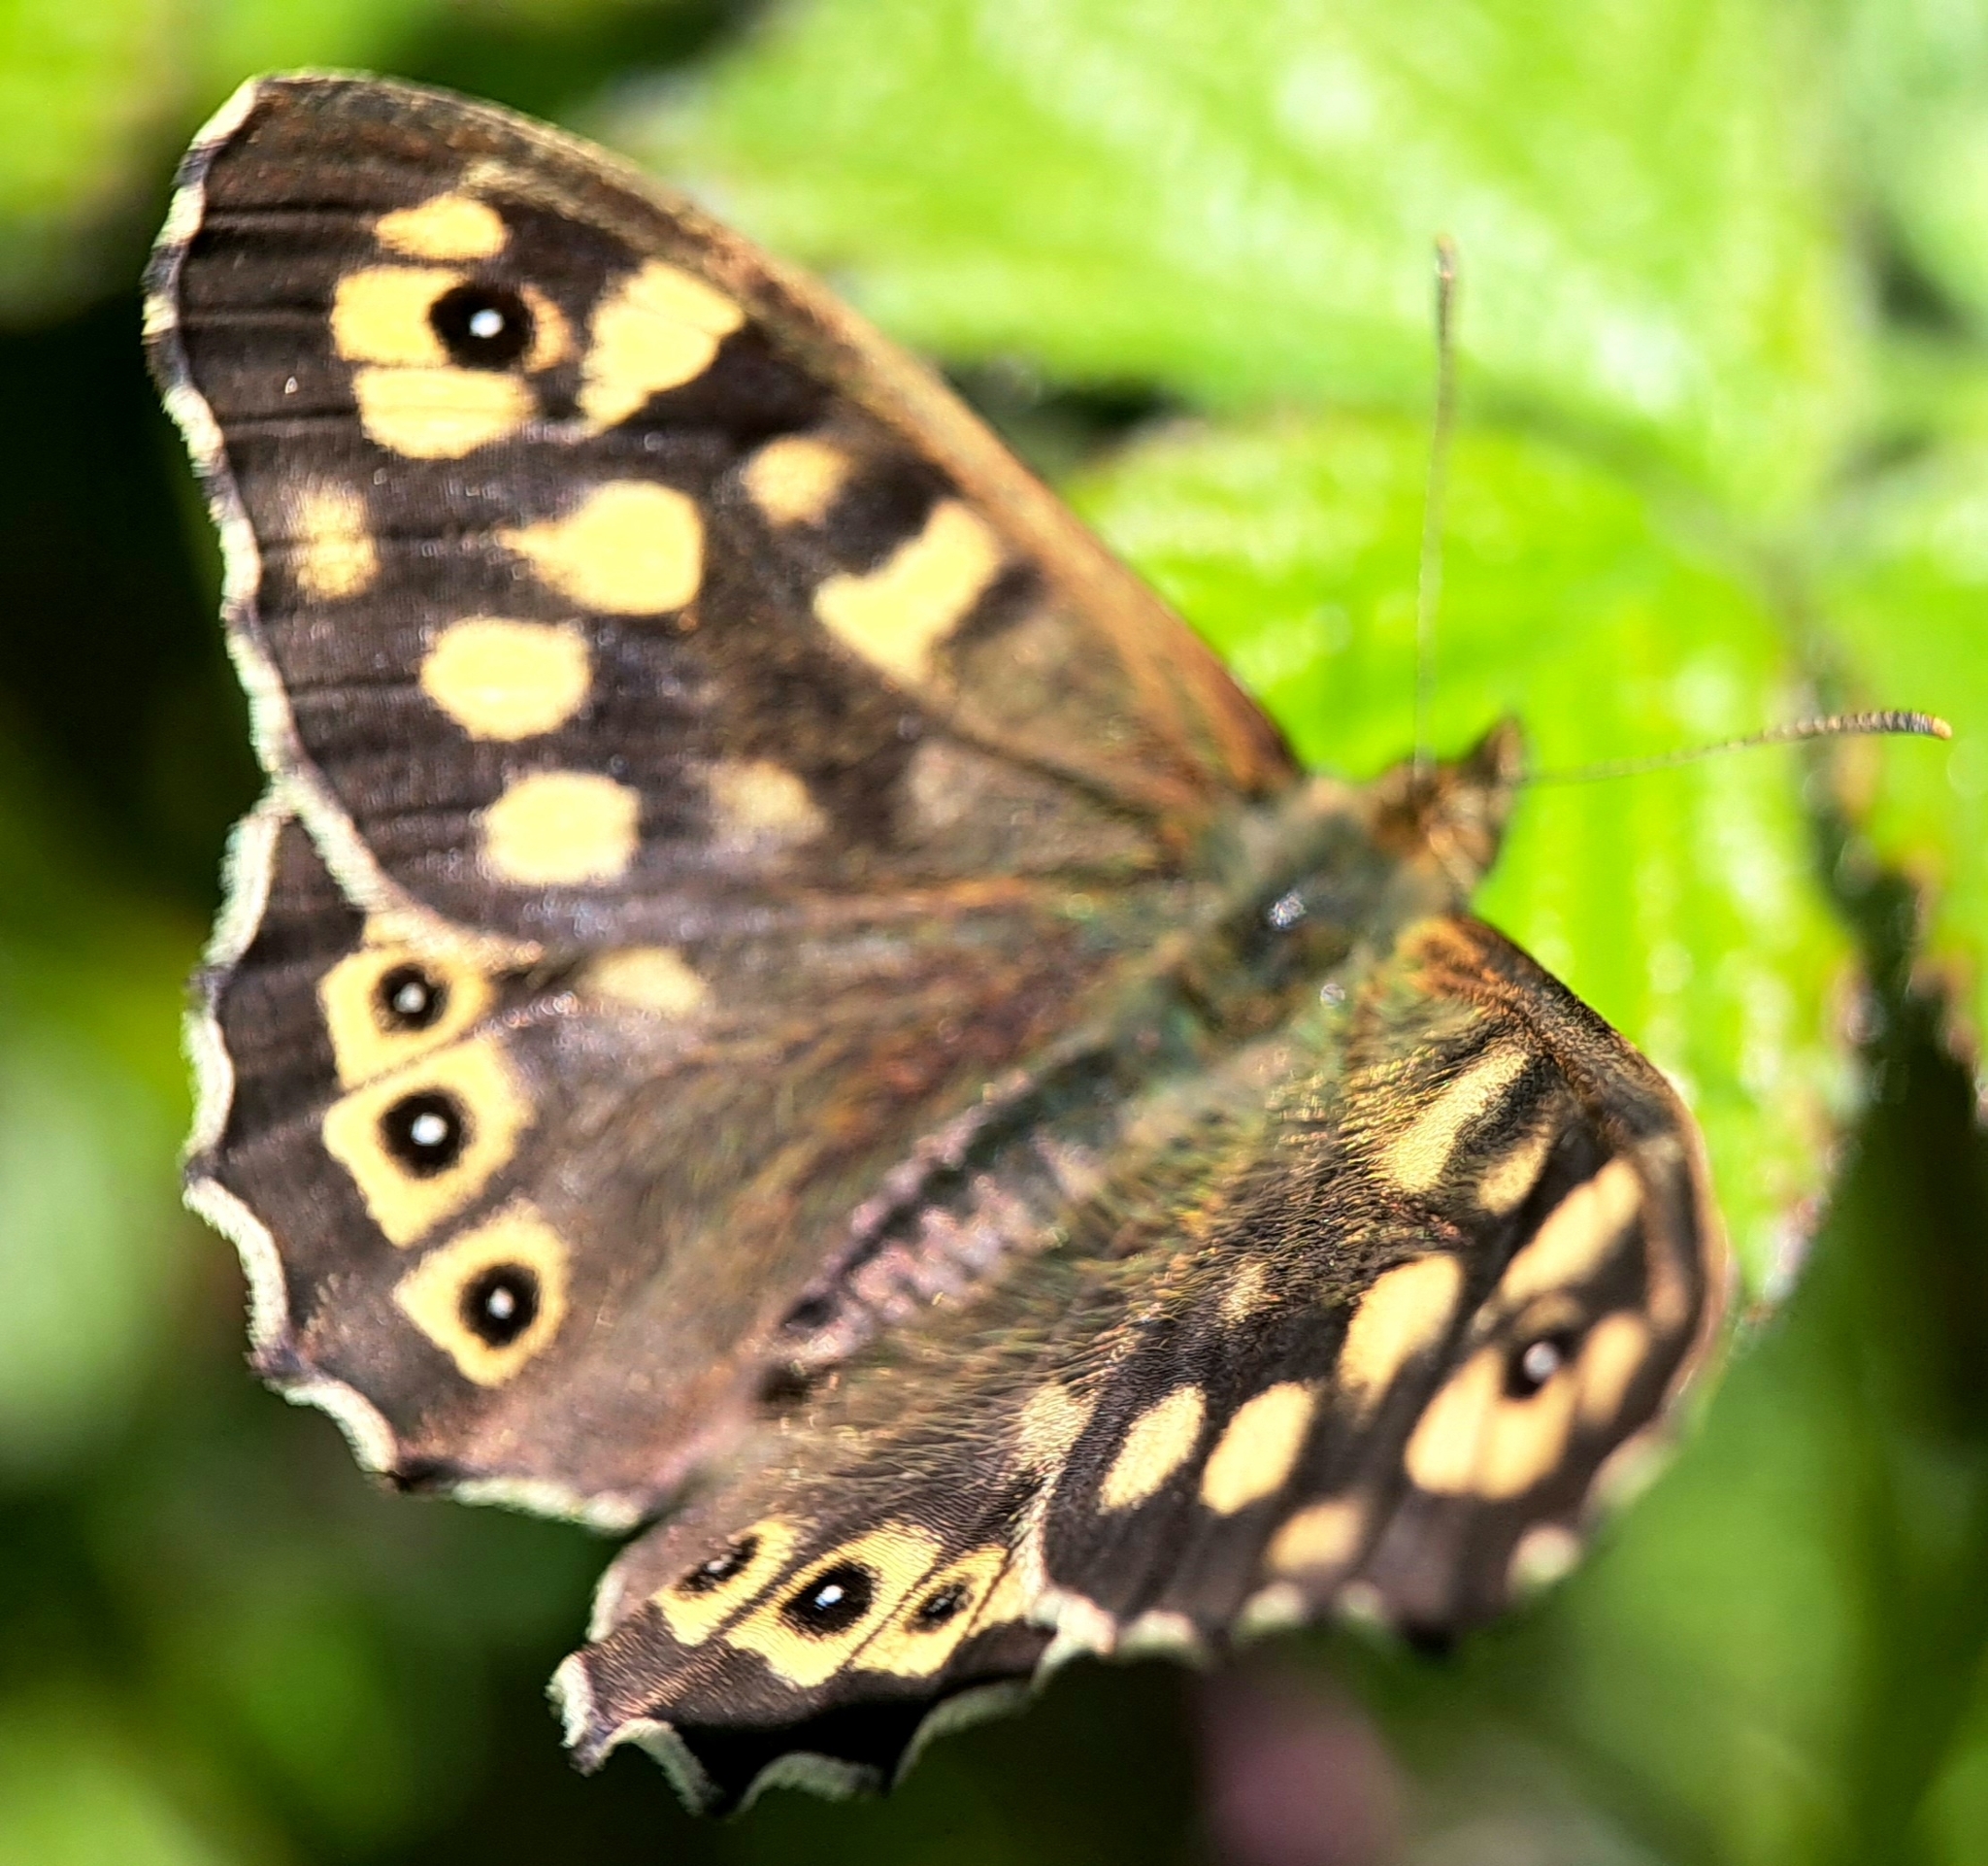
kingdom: Animalia
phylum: Arthropoda
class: Insecta
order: Lepidoptera
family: Nymphalidae
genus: Pararge
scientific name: Pararge aegeria
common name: Speckled wood
